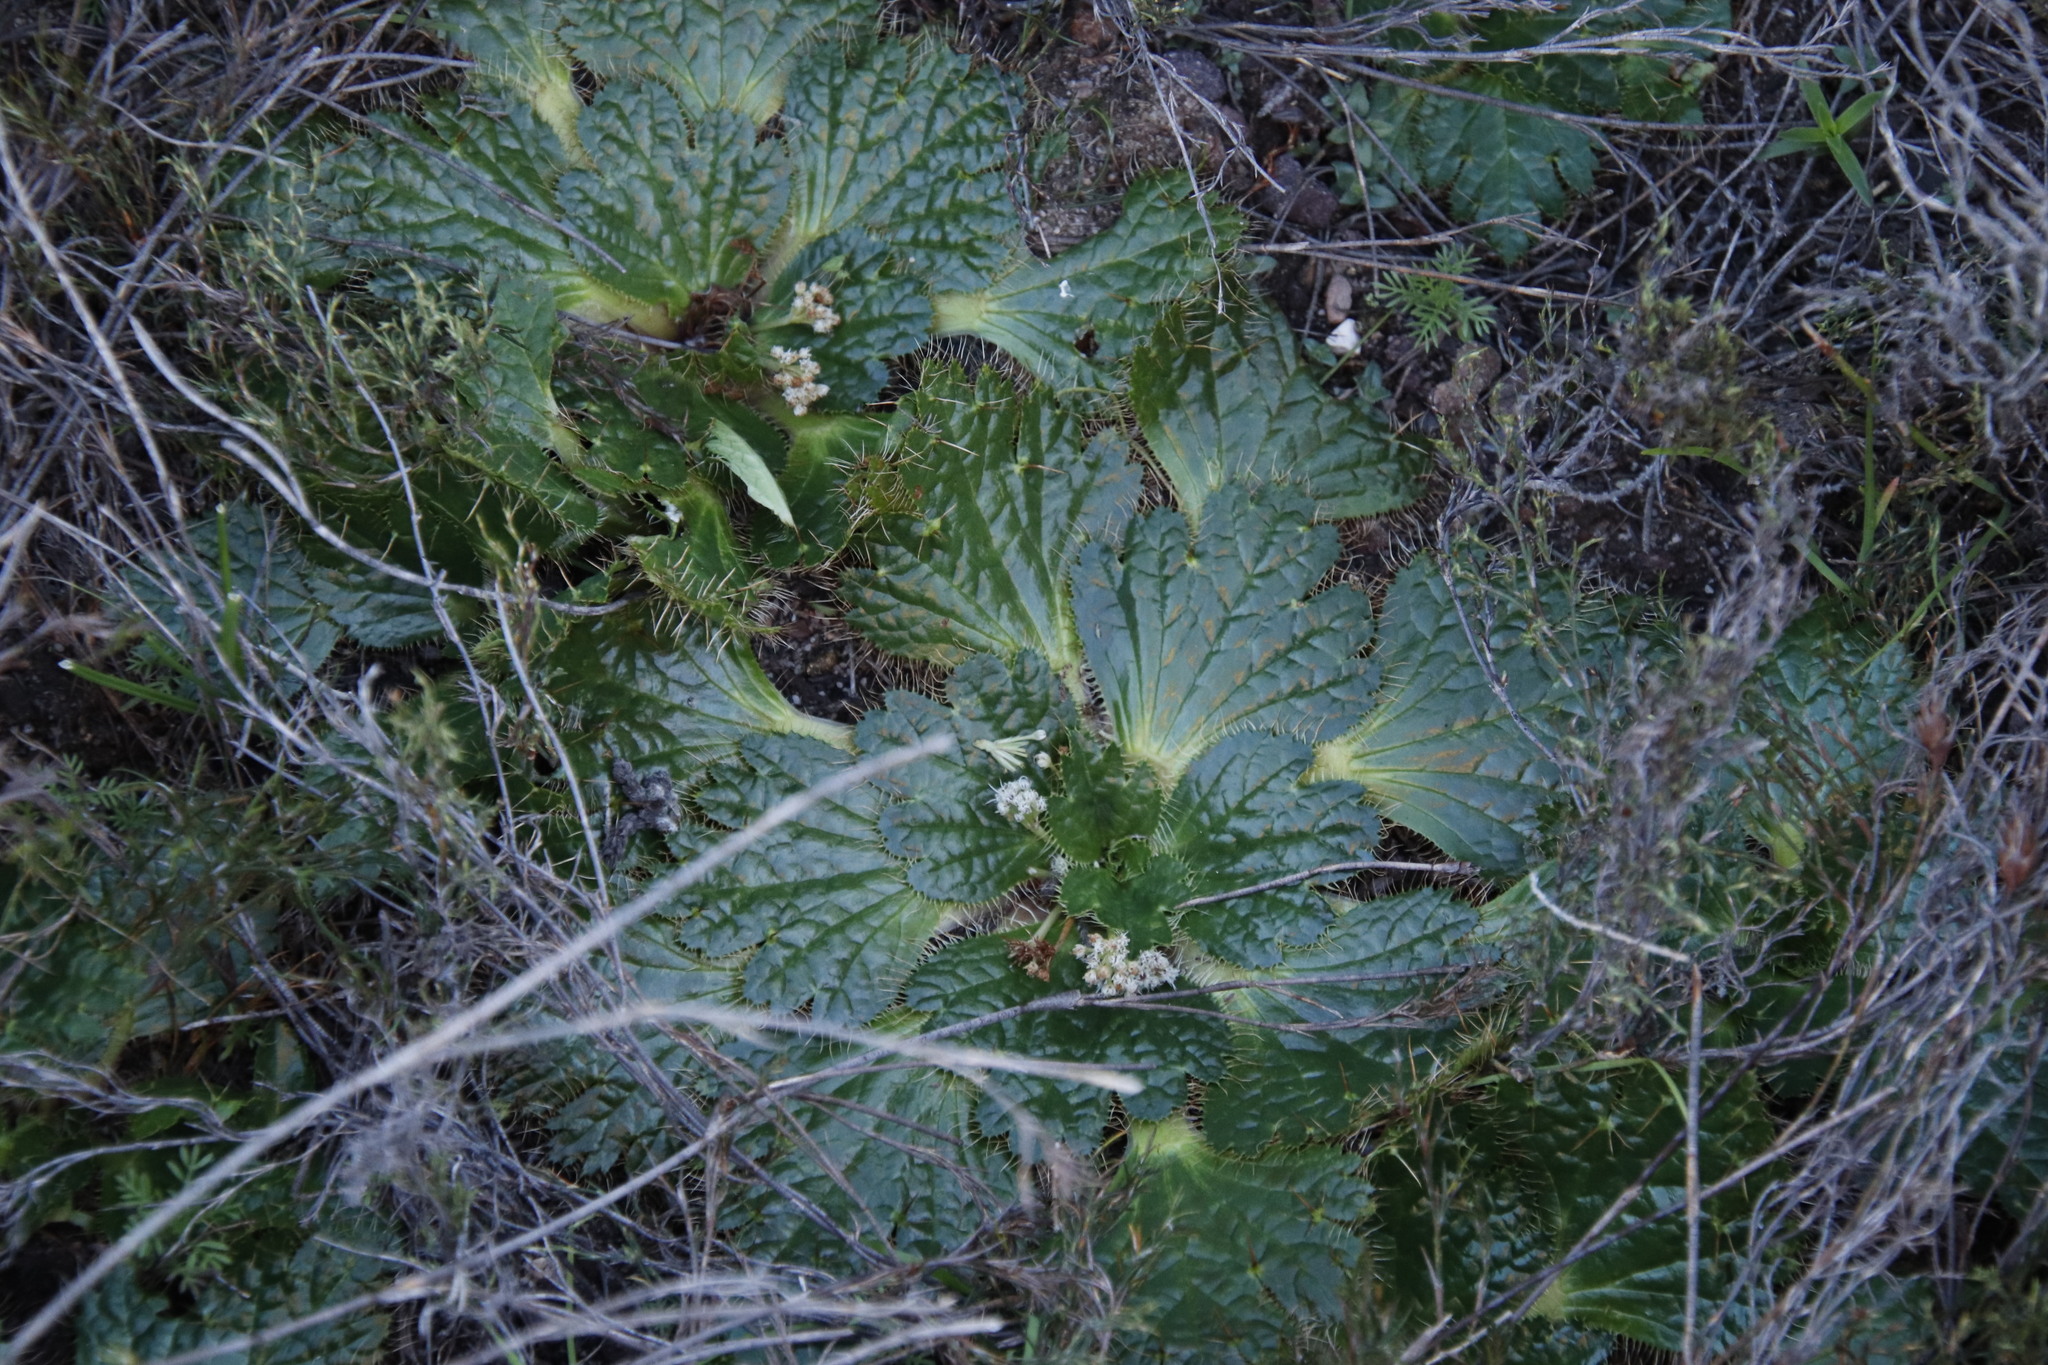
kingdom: Plantae
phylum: Tracheophyta
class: Magnoliopsida
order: Apiales
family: Apiaceae
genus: Arctopus
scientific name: Arctopus echinatus
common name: Platdoring
